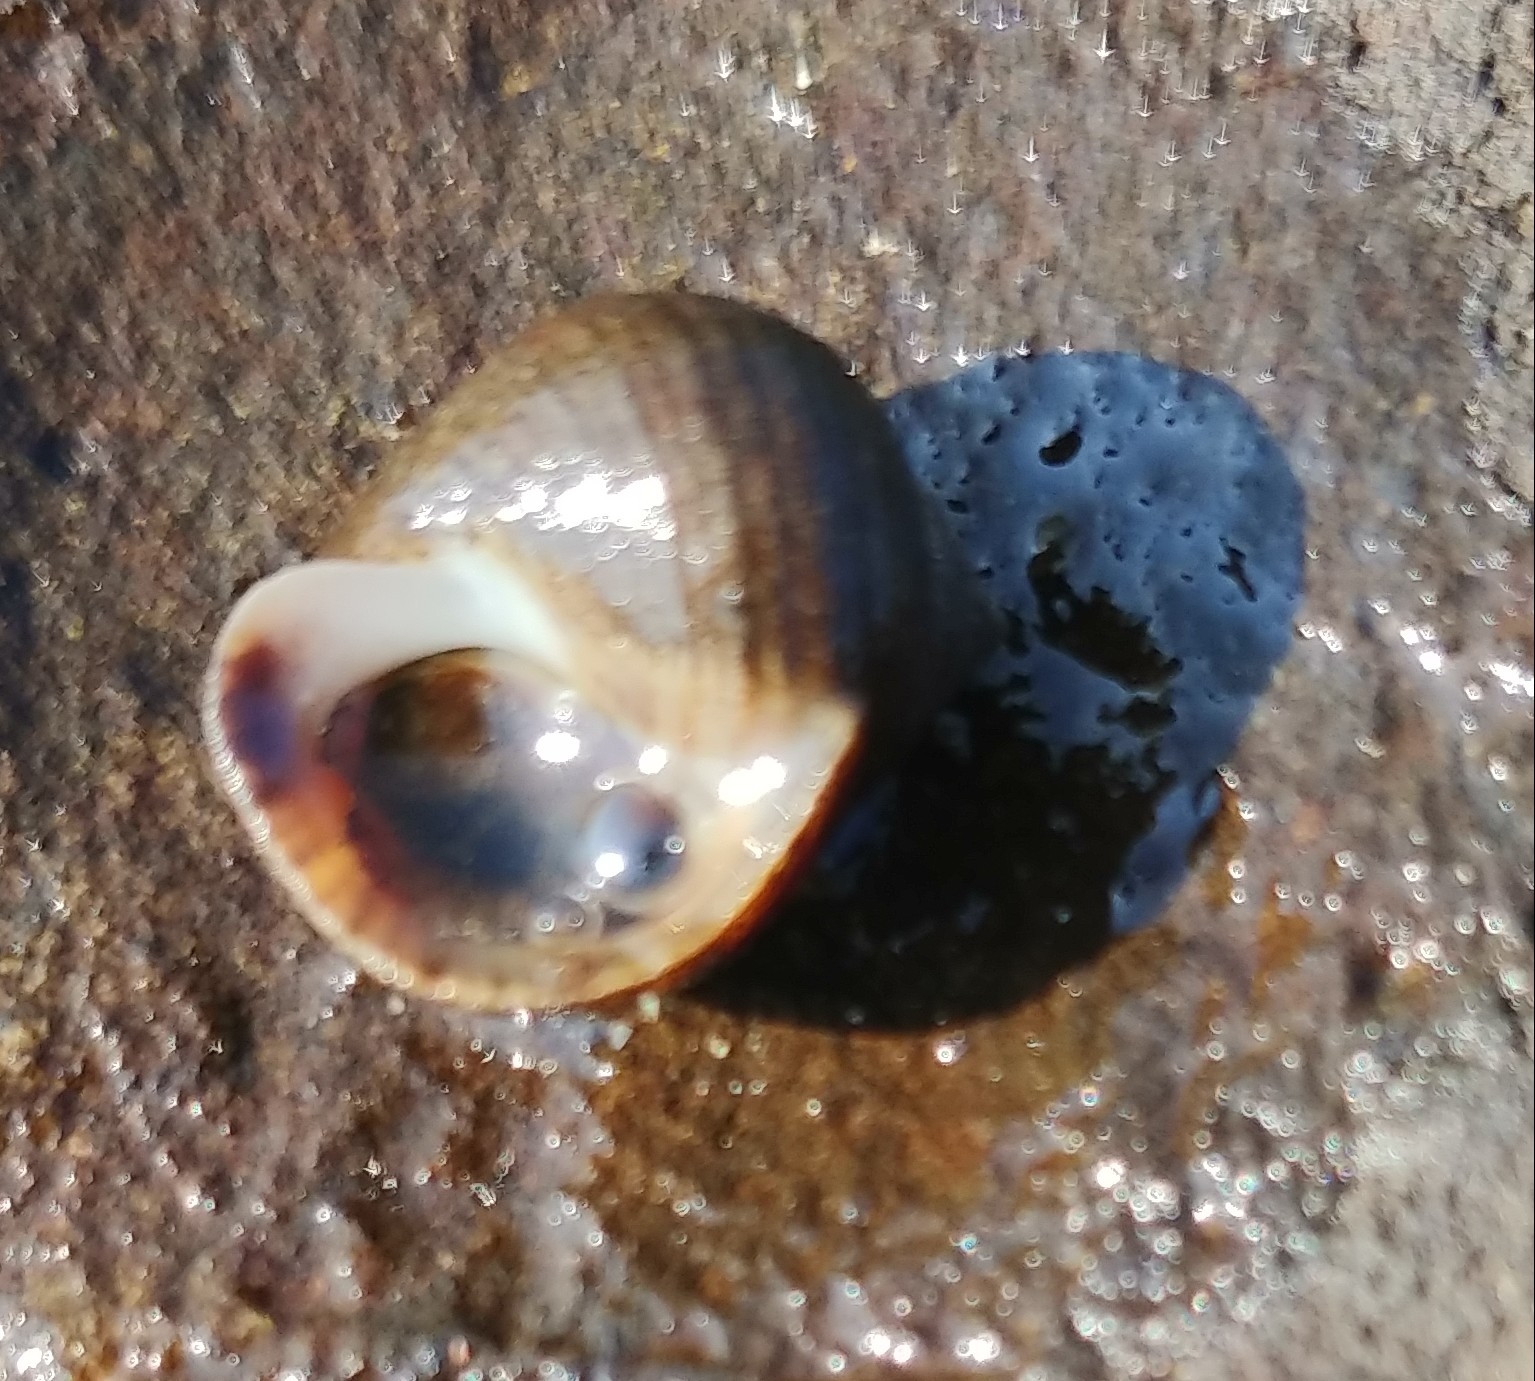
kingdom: Animalia
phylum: Mollusca
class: Gastropoda
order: Littorinimorpha
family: Littorinidae
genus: Littorina
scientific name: Littorina littorea
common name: Common periwinkle
